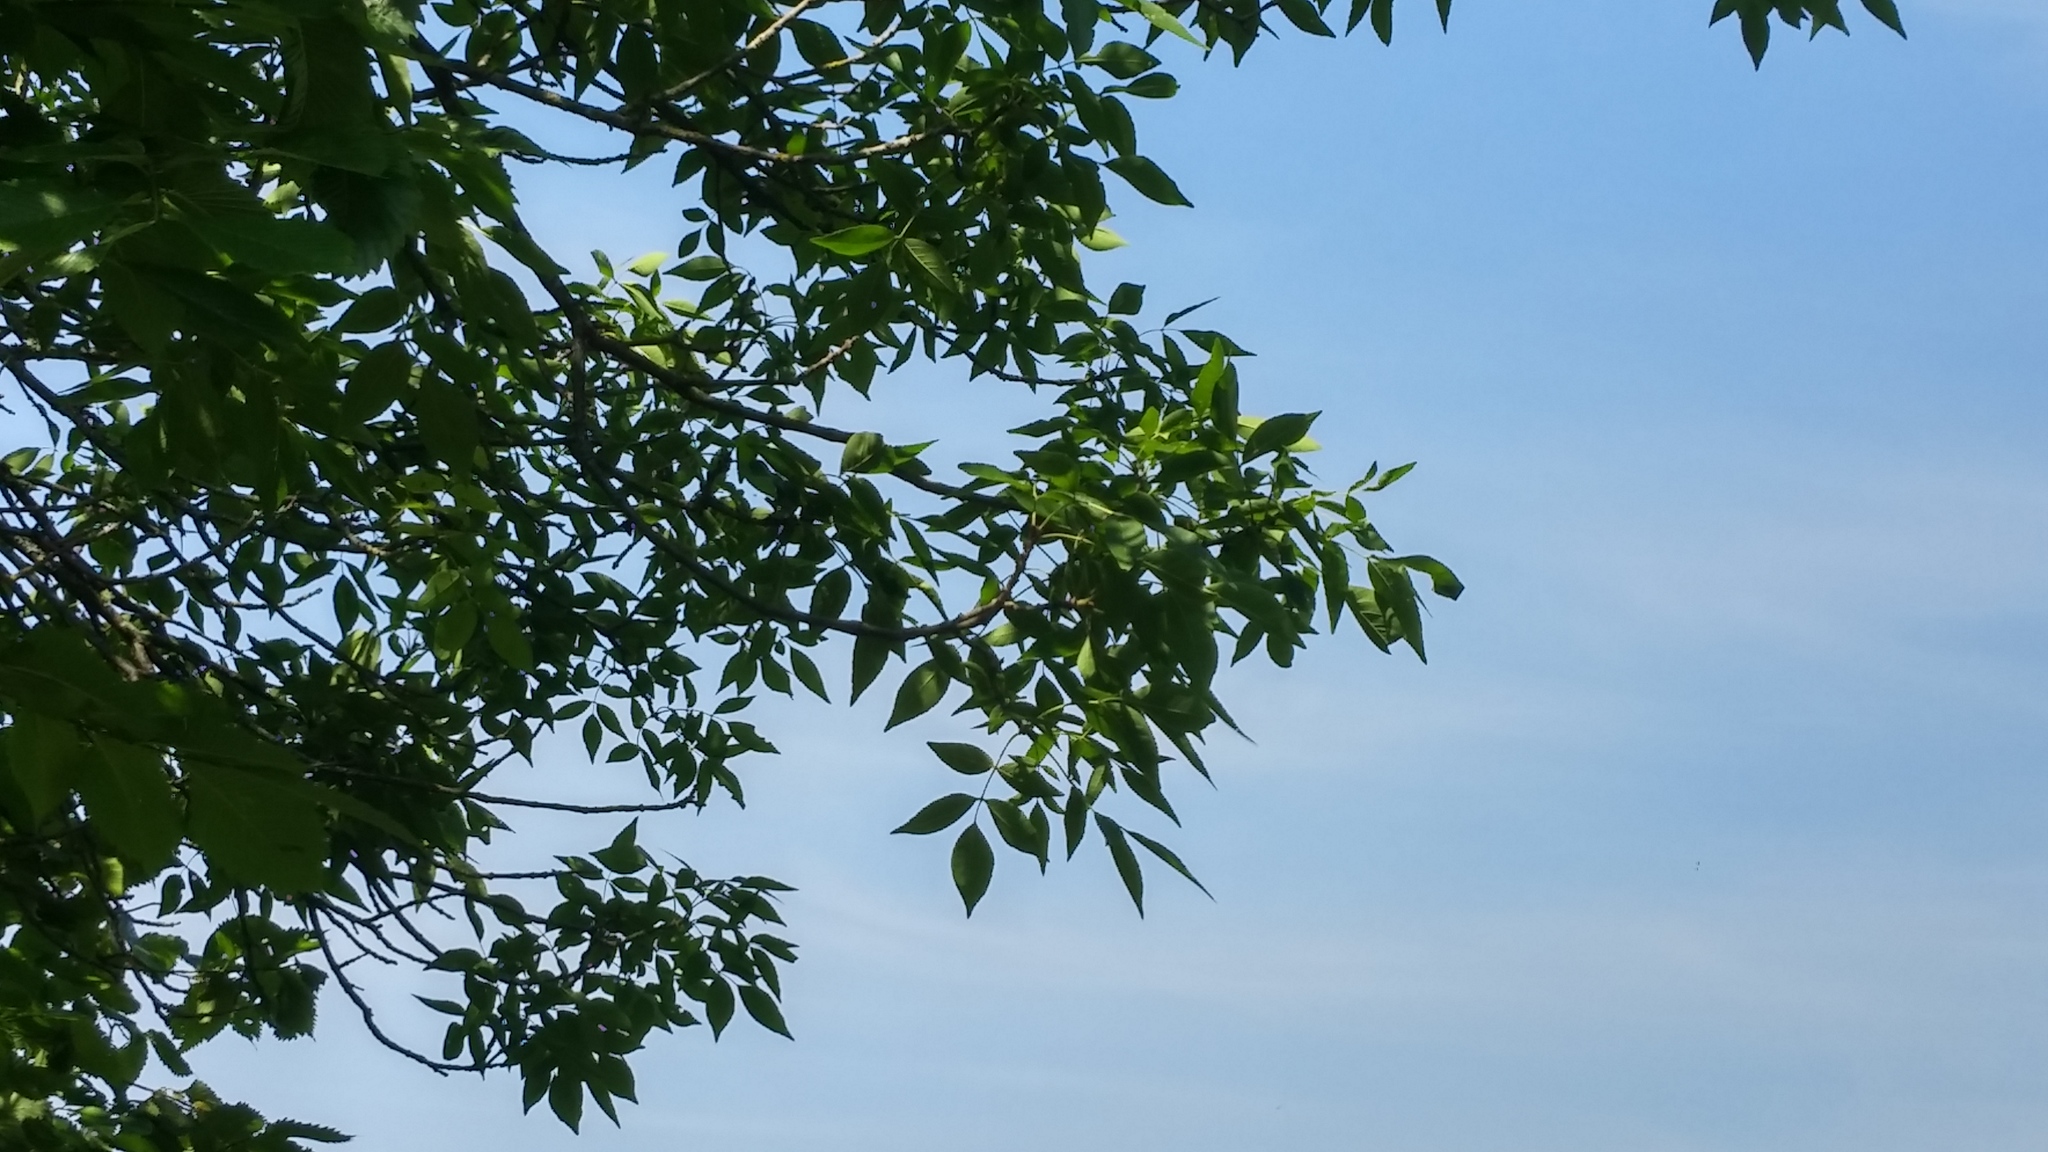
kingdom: Plantae
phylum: Tracheophyta
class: Magnoliopsida
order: Lamiales
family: Oleaceae
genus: Fraxinus
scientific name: Fraxinus pennsylvanica
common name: Green ash
